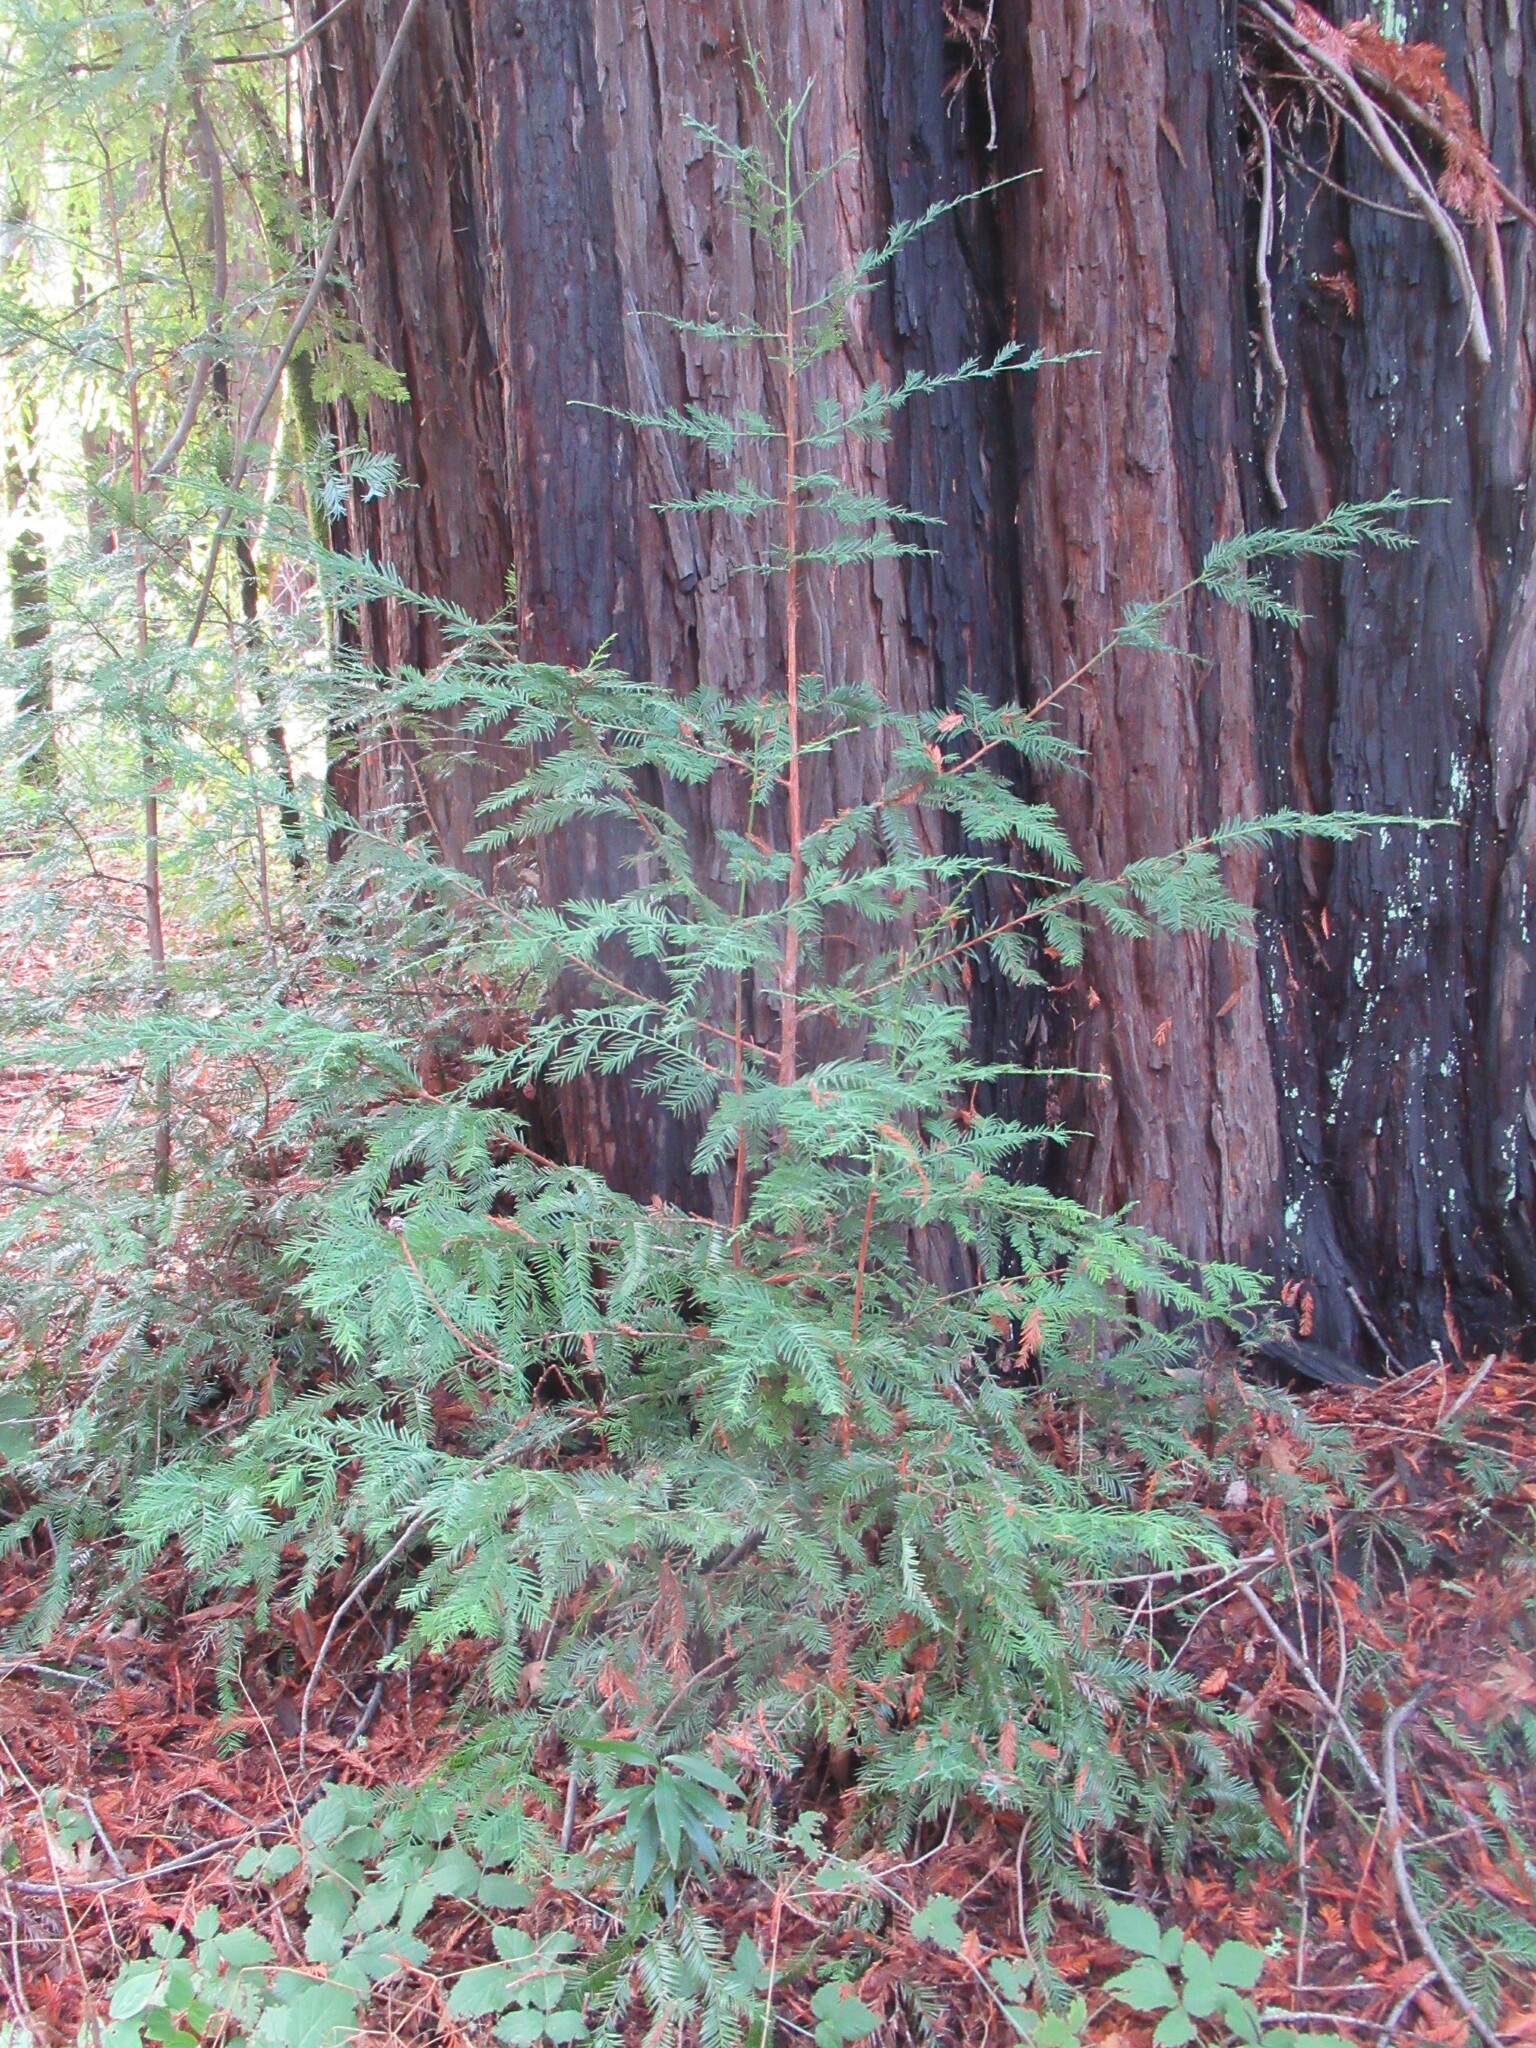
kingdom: Plantae
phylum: Tracheophyta
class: Pinopsida
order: Pinales
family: Cupressaceae
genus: Sequoia
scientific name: Sequoia sempervirens
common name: Coast redwood
